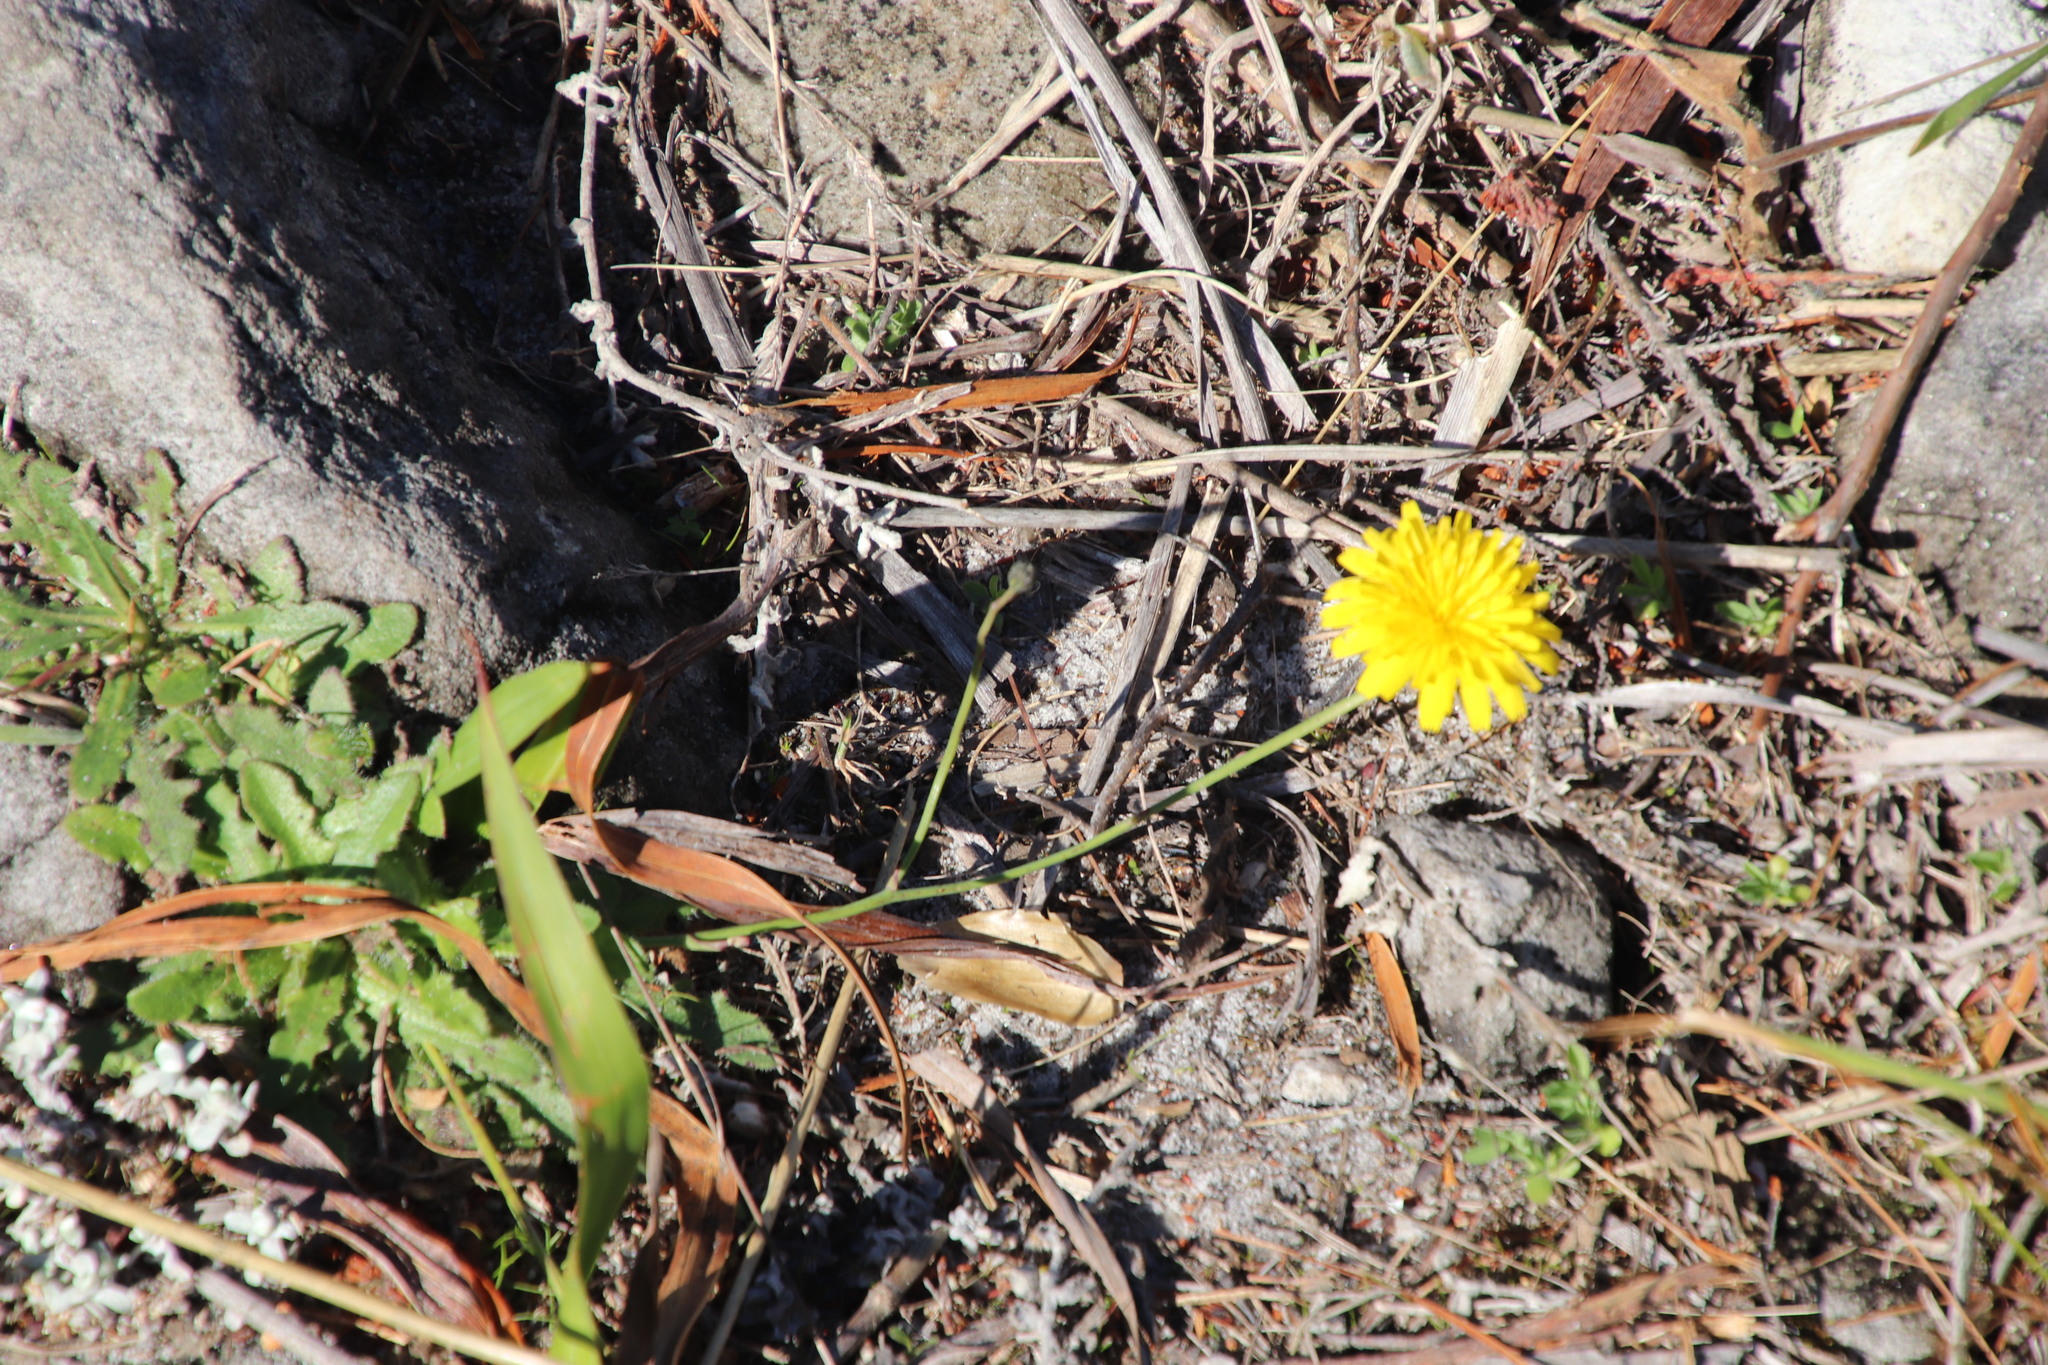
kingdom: Plantae
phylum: Tracheophyta
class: Magnoliopsida
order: Asterales
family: Asteraceae
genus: Hypochaeris
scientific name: Hypochaeris radicata
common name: Flatweed
